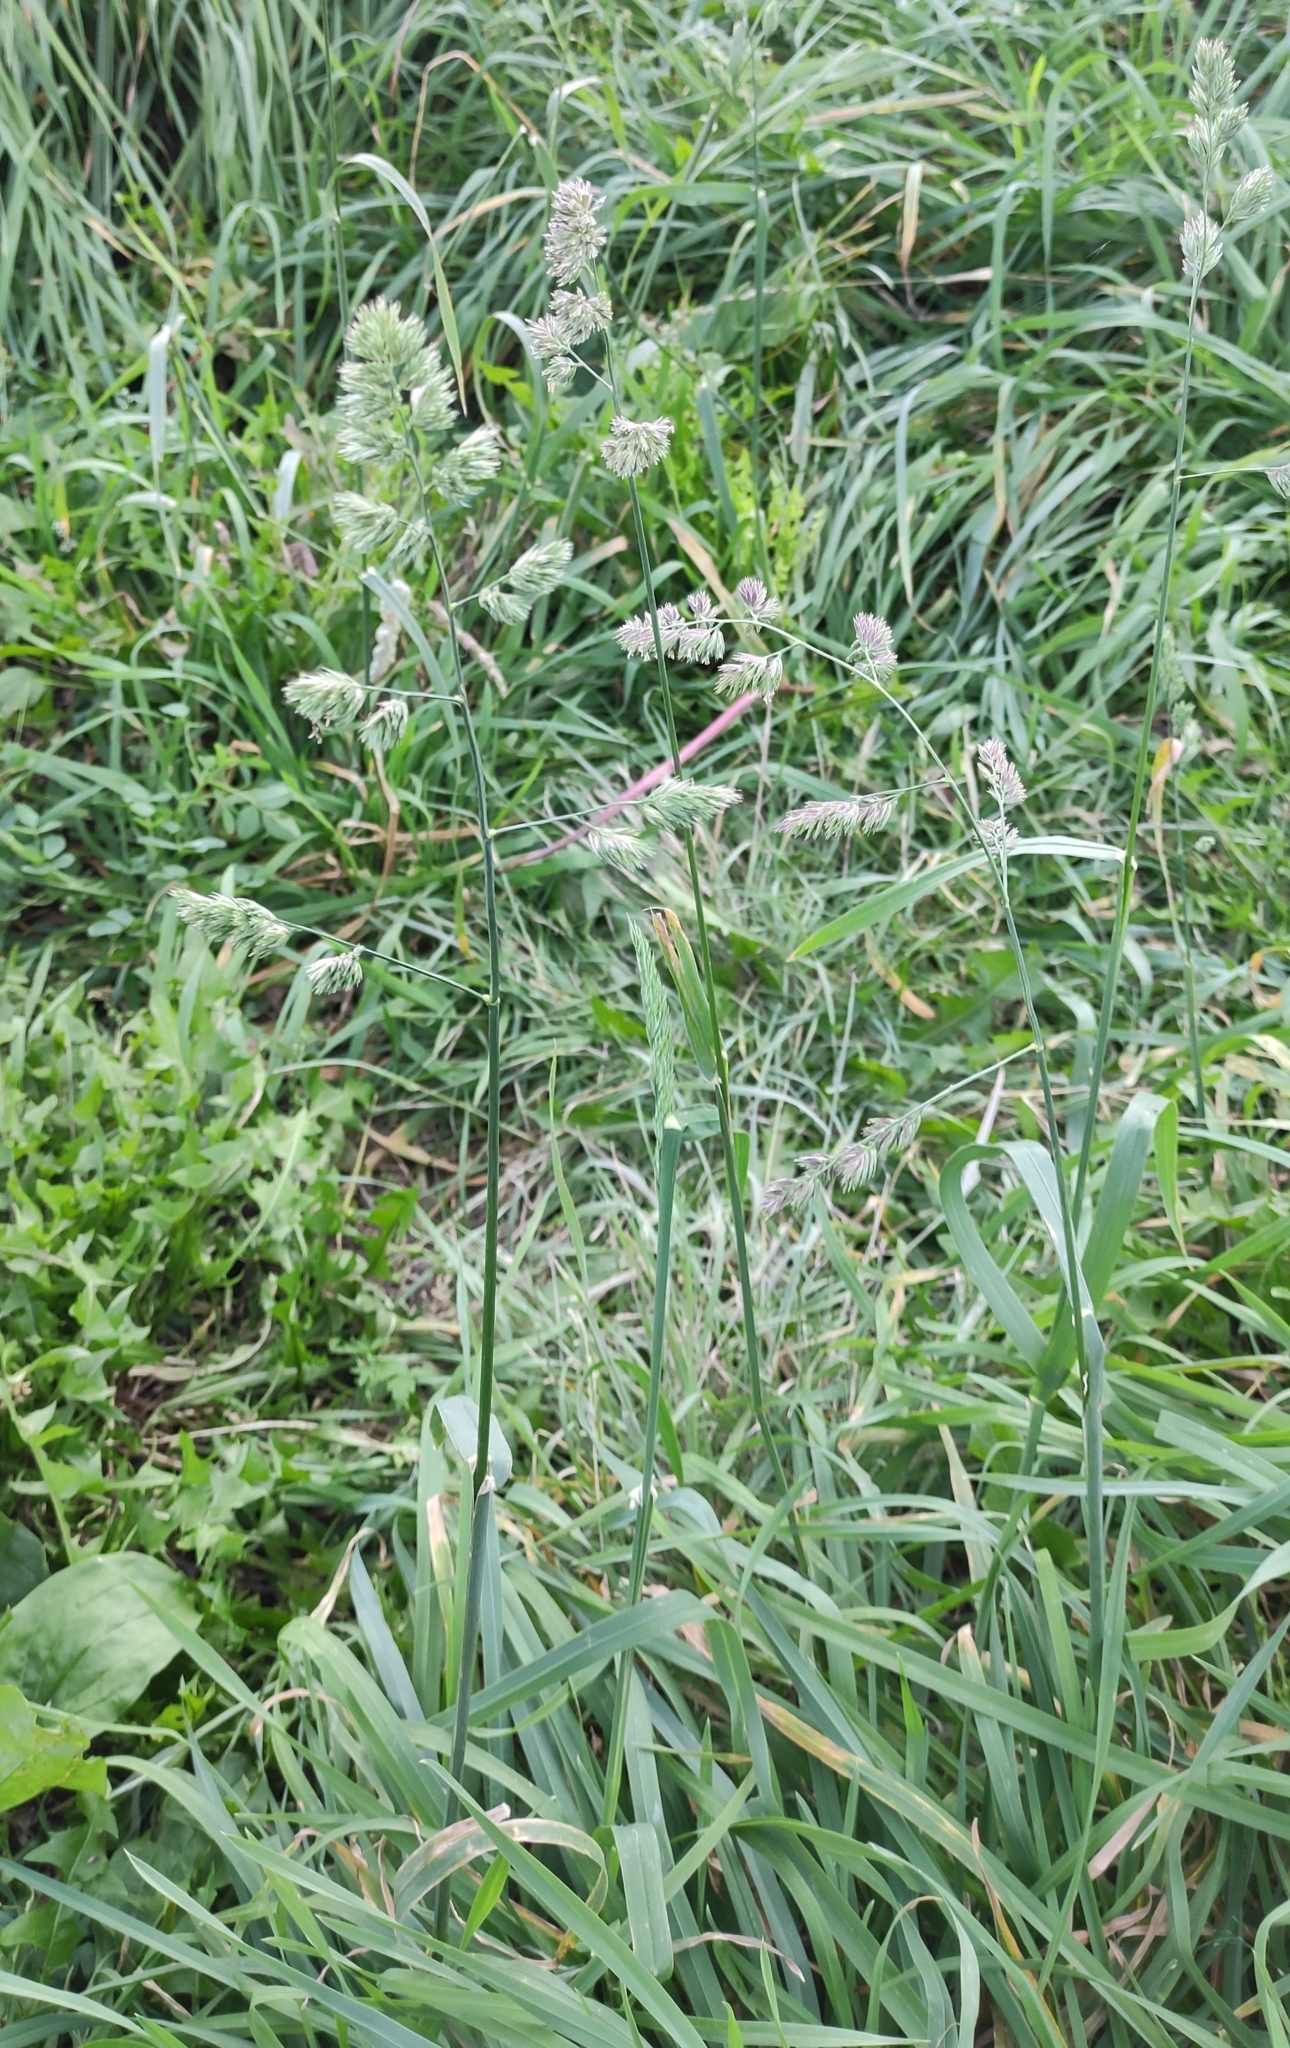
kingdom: Plantae
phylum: Tracheophyta
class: Liliopsida
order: Poales
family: Poaceae
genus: Dactylis
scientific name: Dactylis glomerata
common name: Orchardgrass
